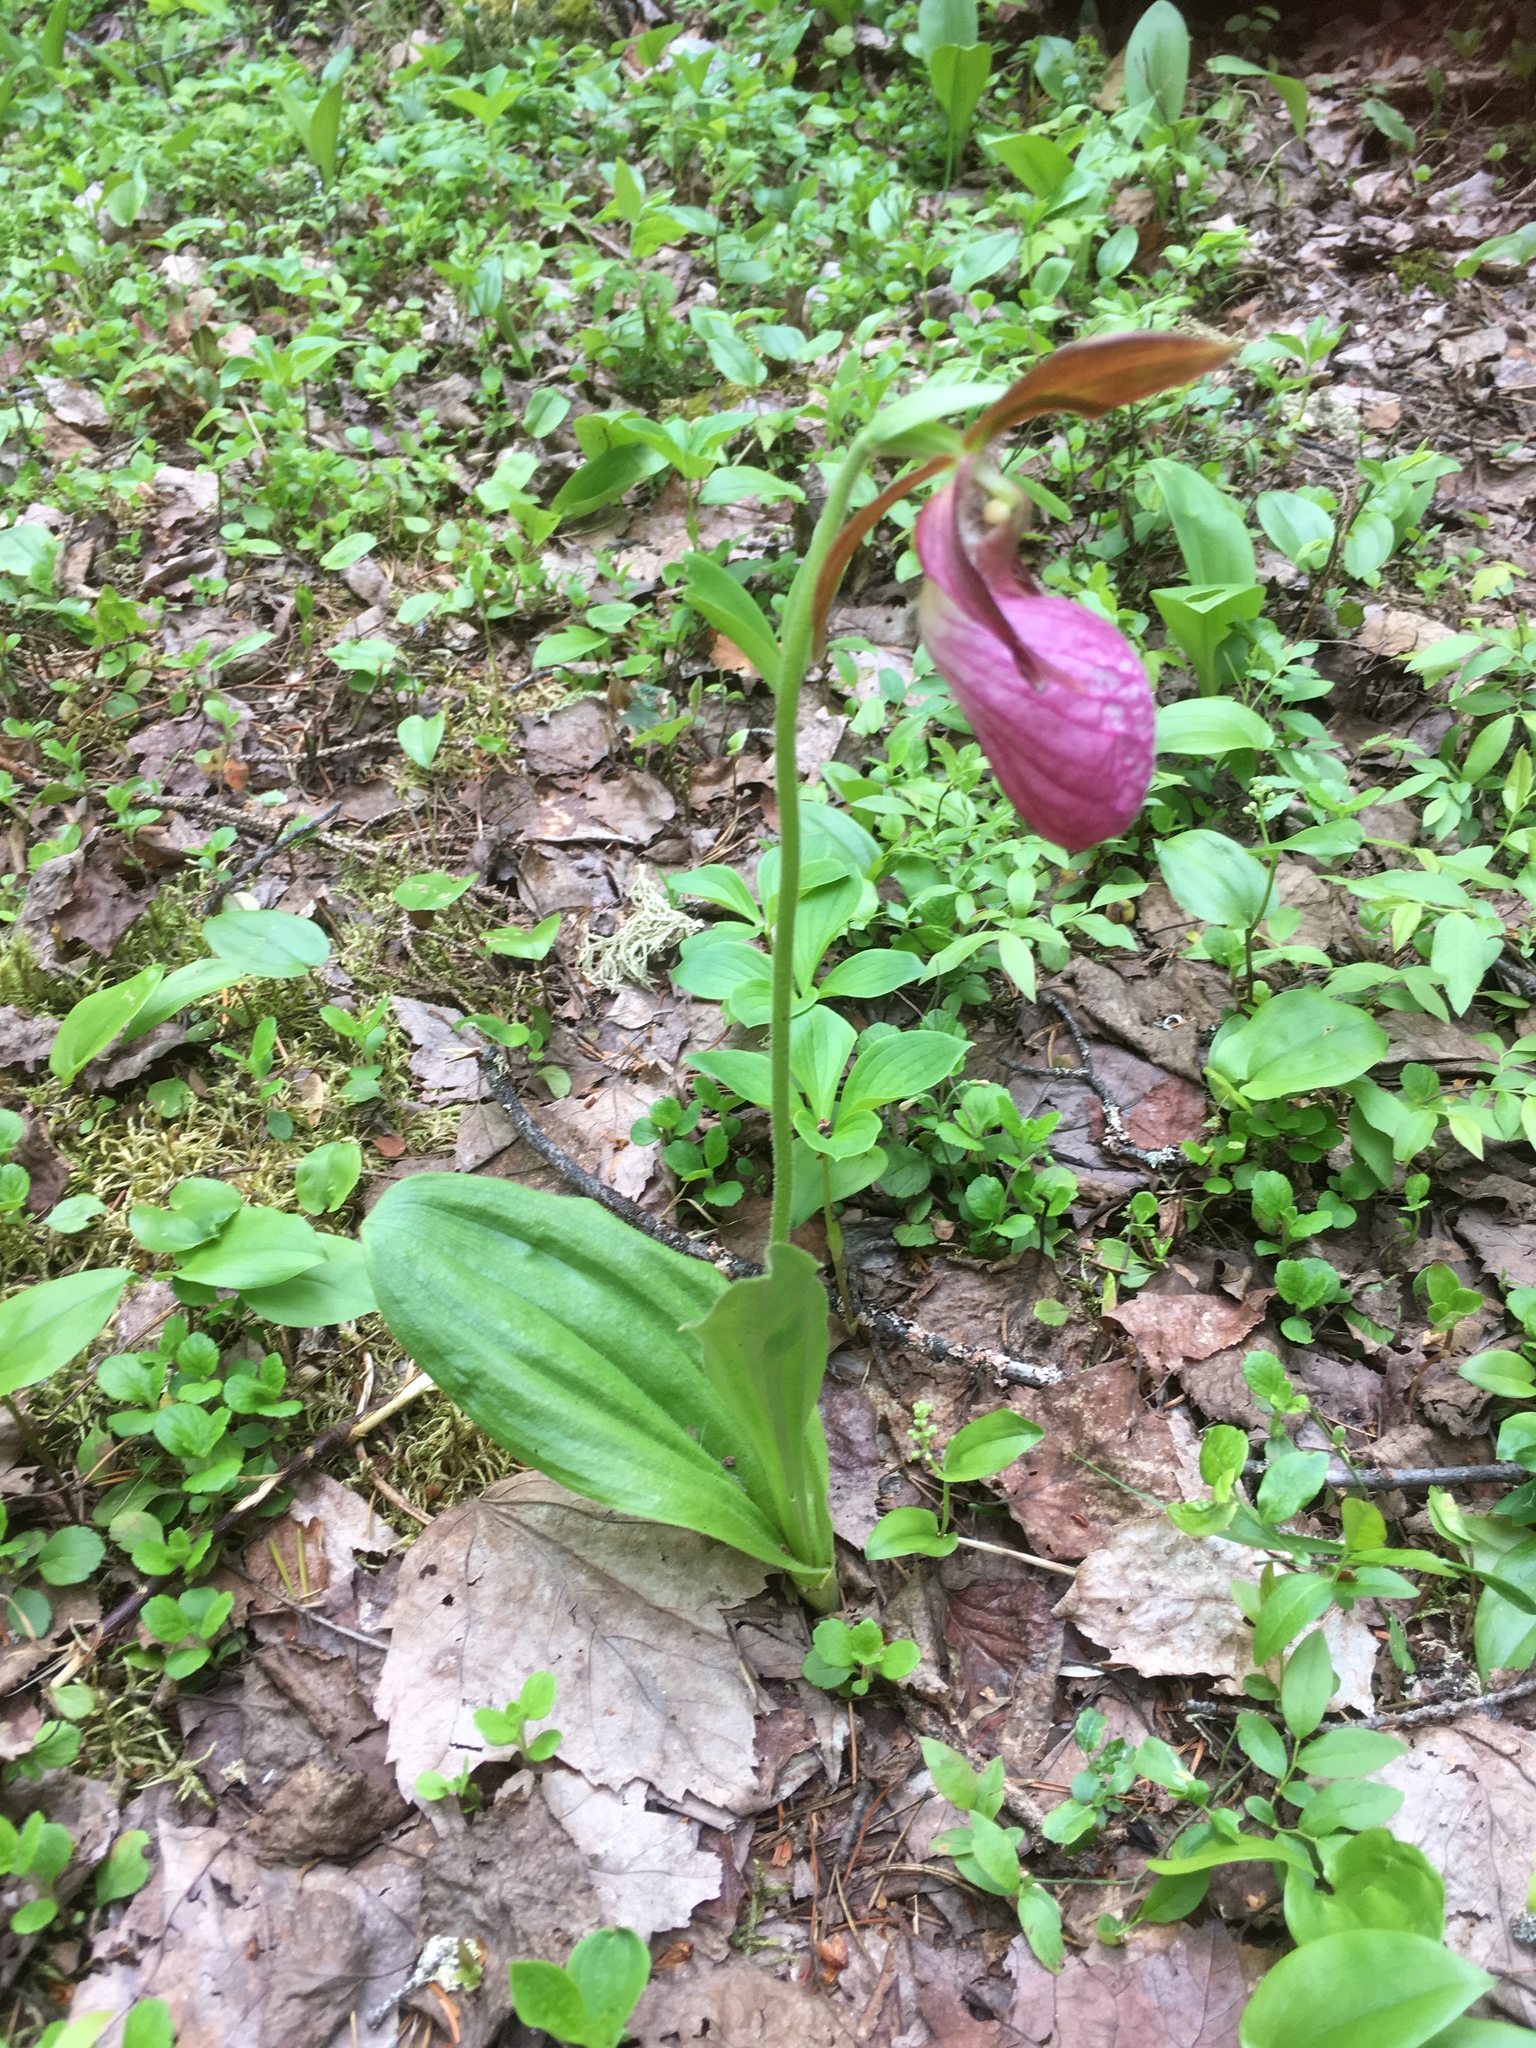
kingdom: Plantae
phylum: Tracheophyta
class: Liliopsida
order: Asparagales
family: Orchidaceae
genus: Cypripedium
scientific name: Cypripedium acaule
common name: Pink lady's-slipper
